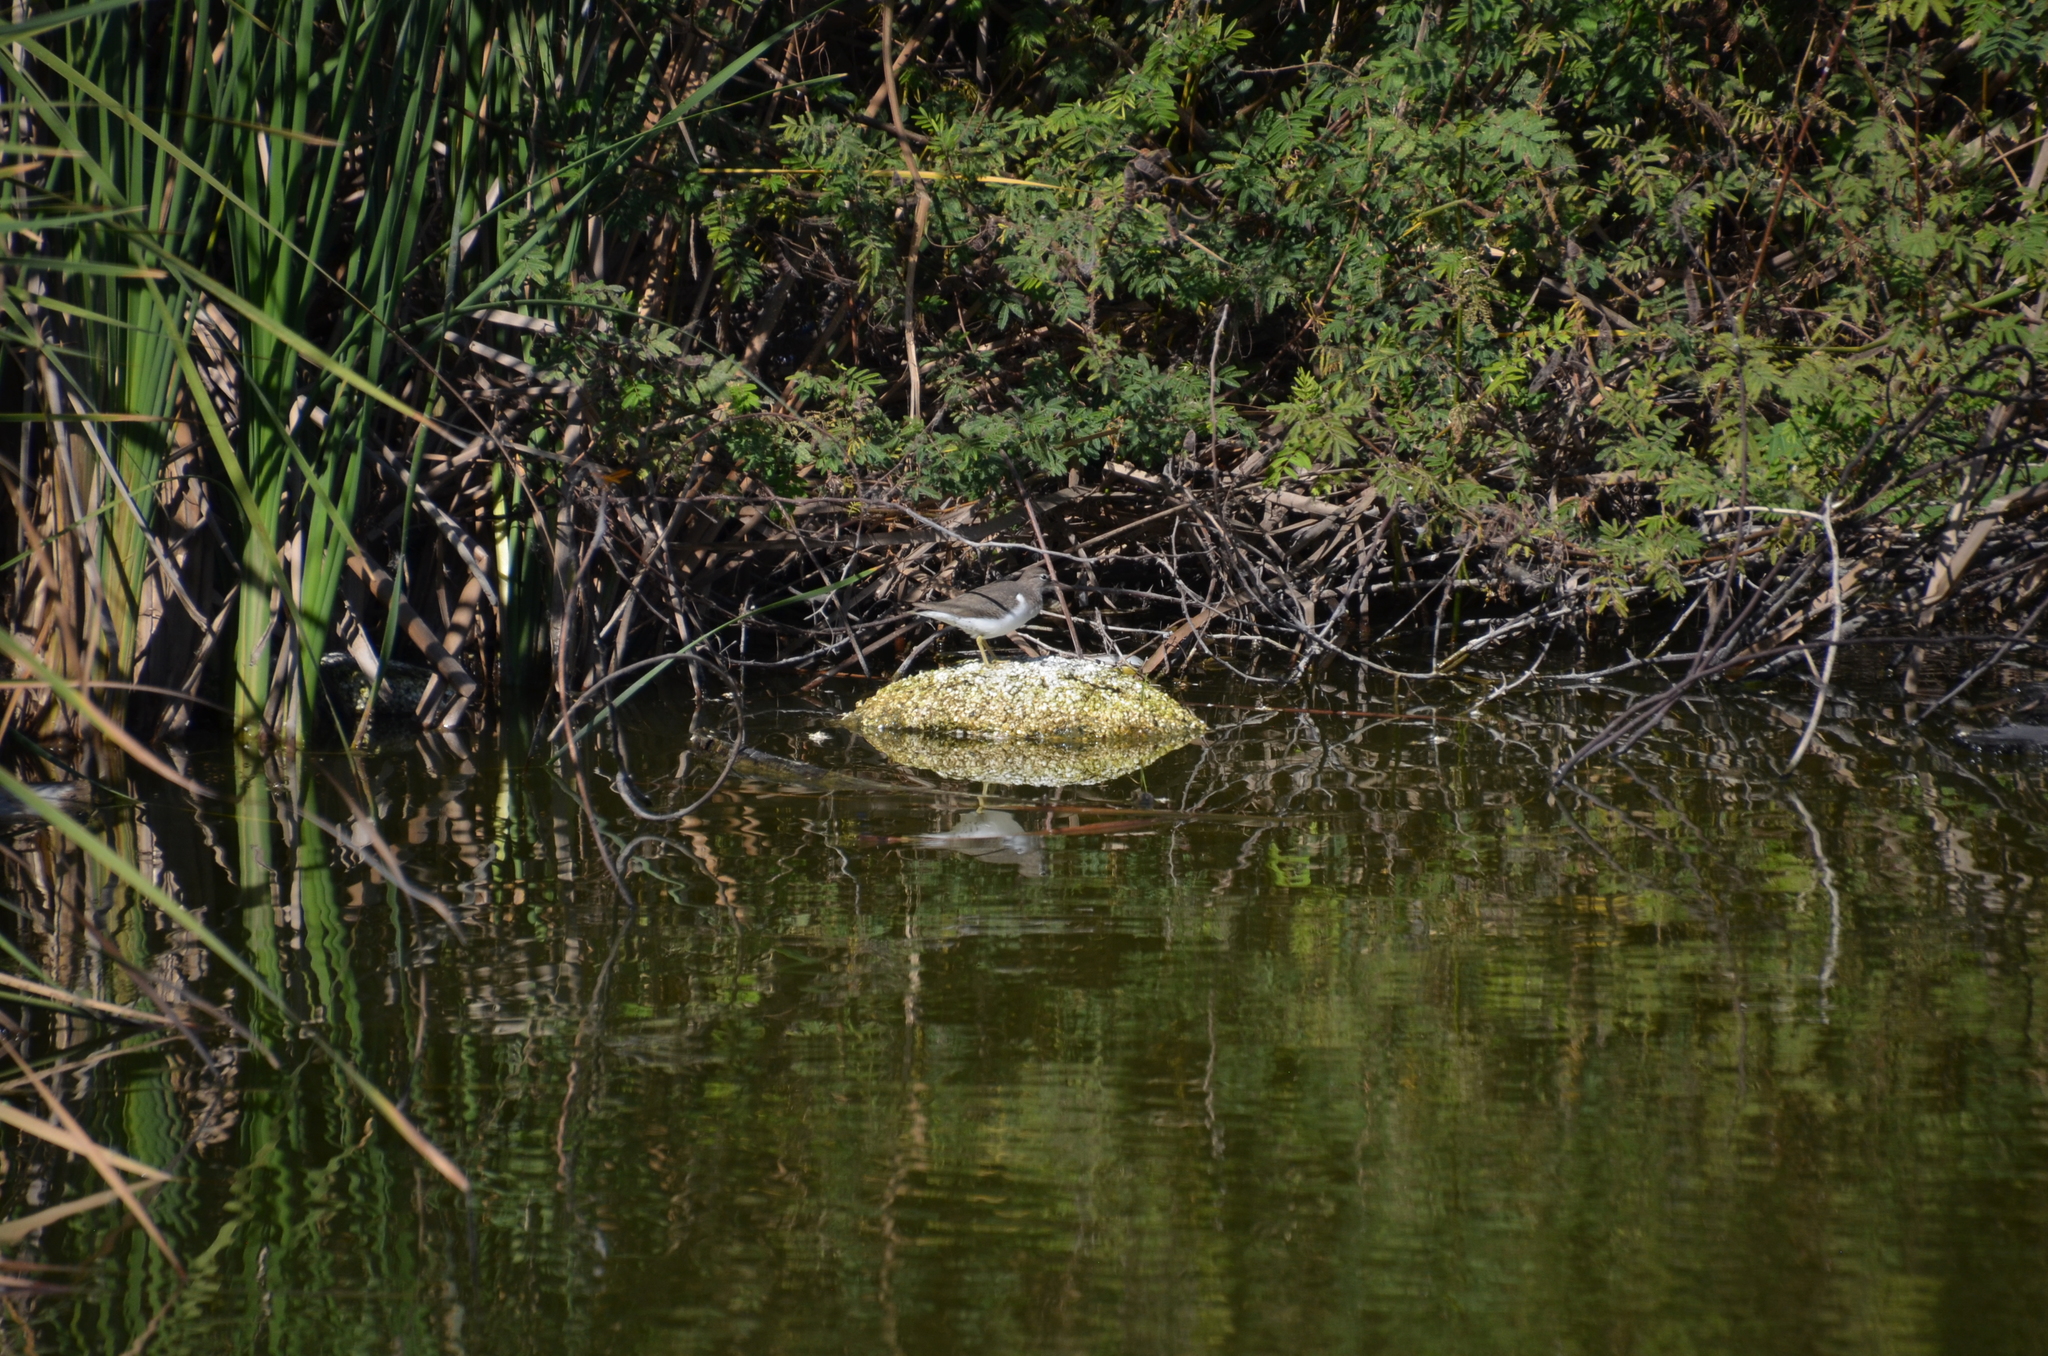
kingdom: Animalia
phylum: Chordata
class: Aves
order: Charadriiformes
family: Scolopacidae
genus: Actitis
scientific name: Actitis macularius
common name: Spotted sandpiper
